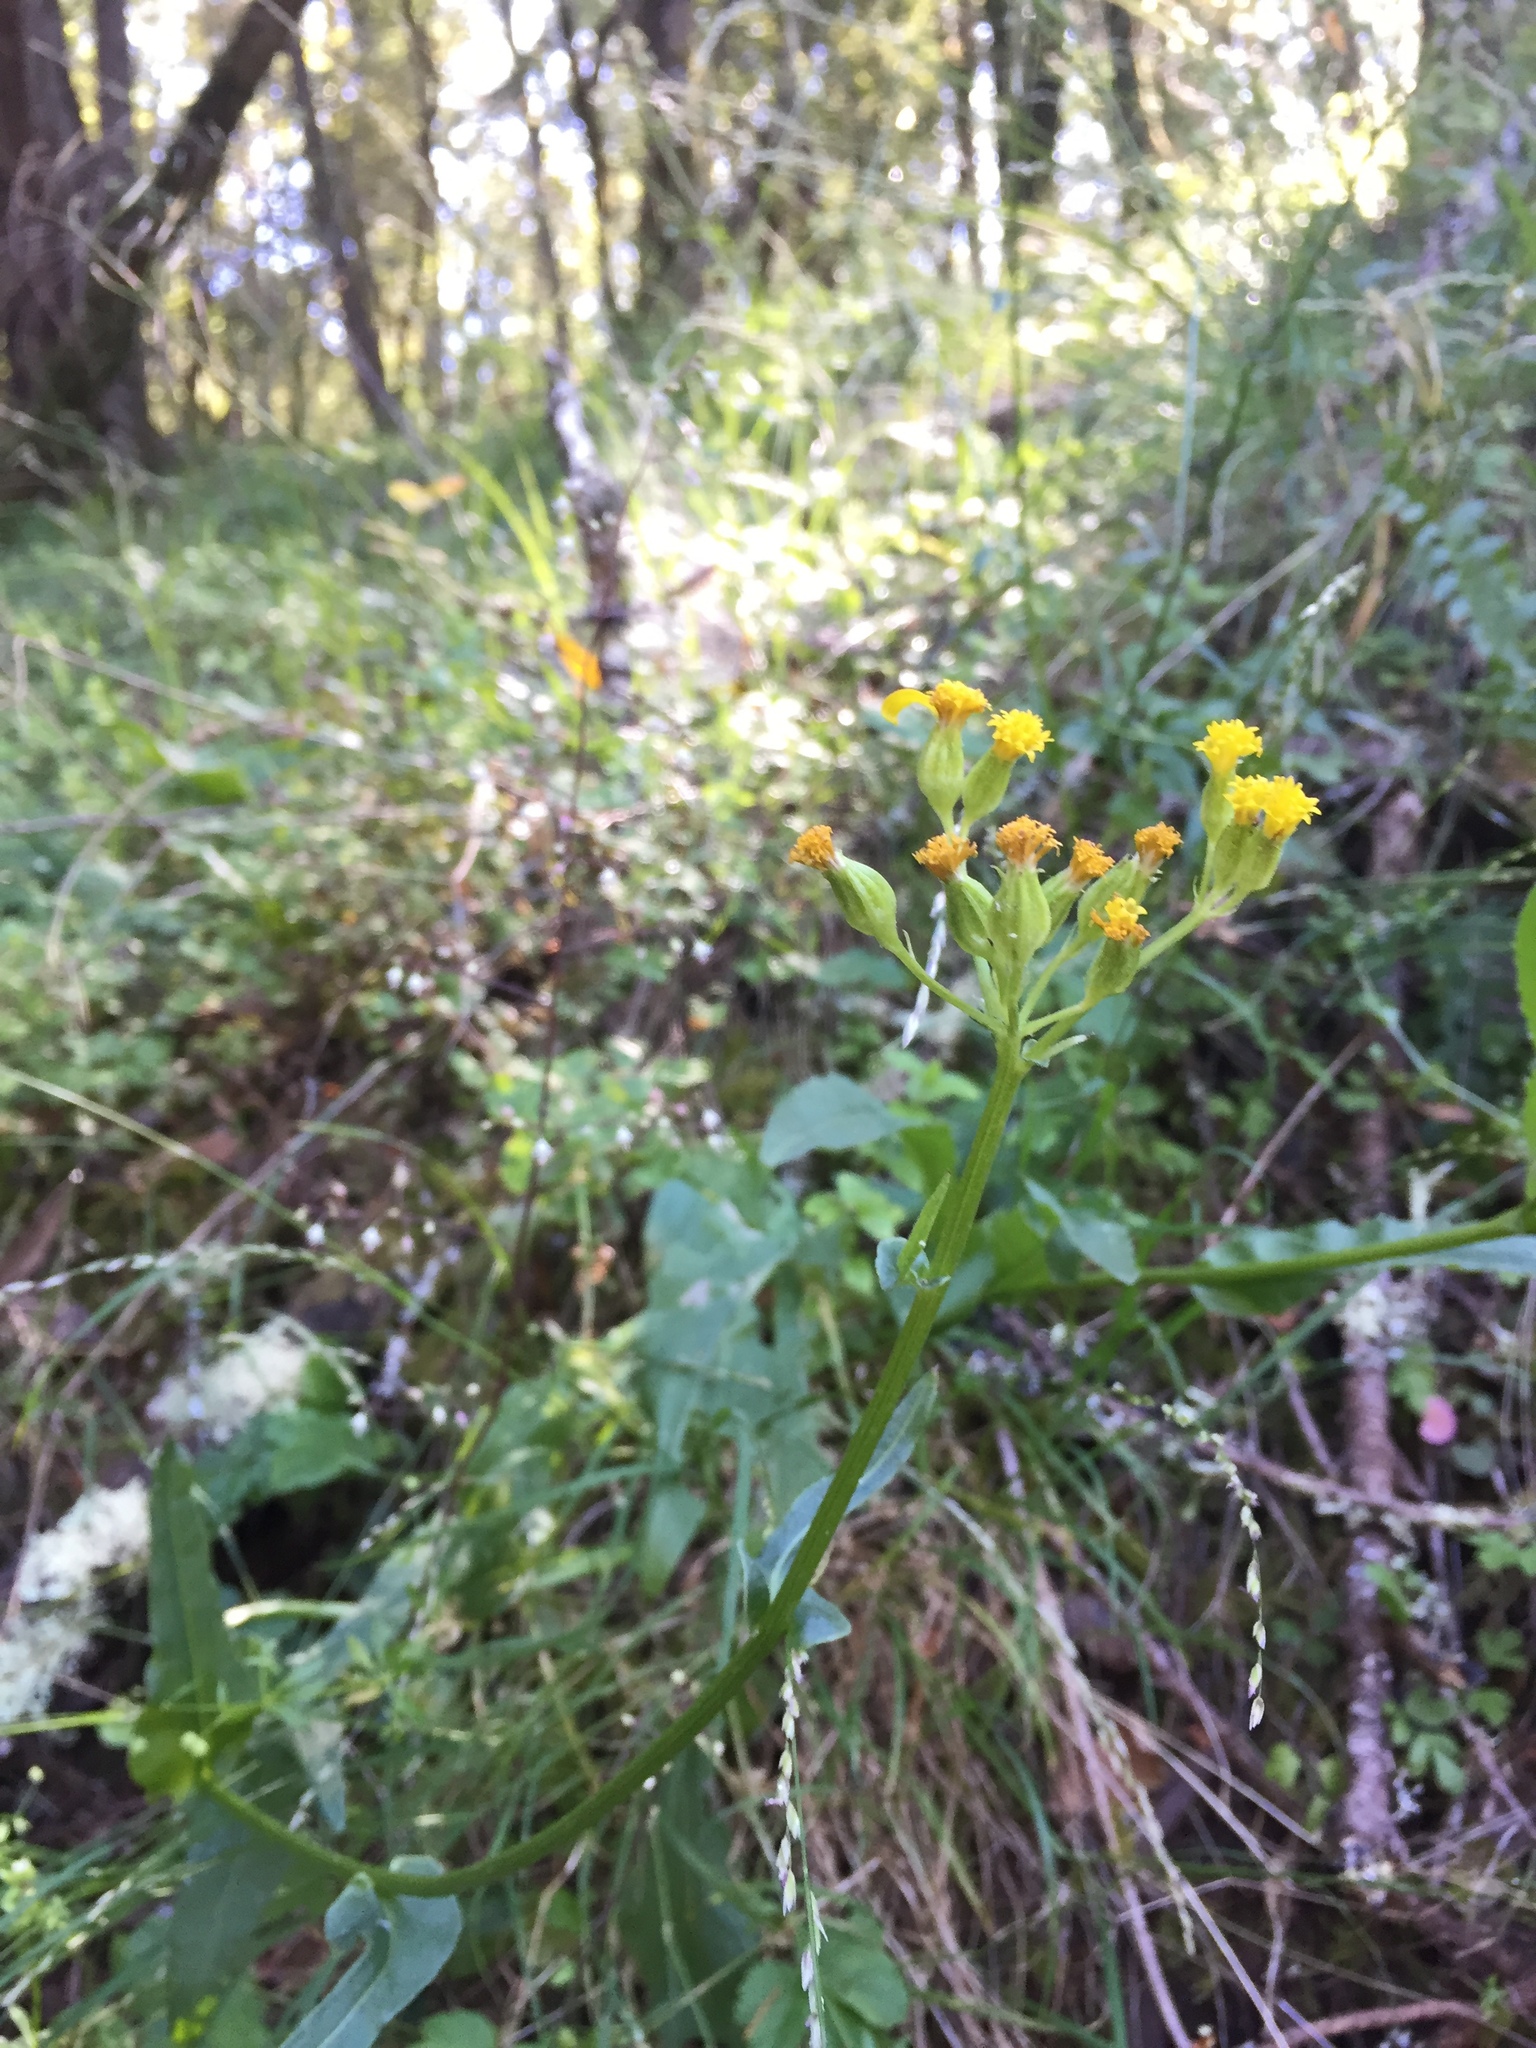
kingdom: Plantae
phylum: Tracheophyta
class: Magnoliopsida
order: Asterales
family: Asteraceae
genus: Senecio
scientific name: Senecio aronicoides
